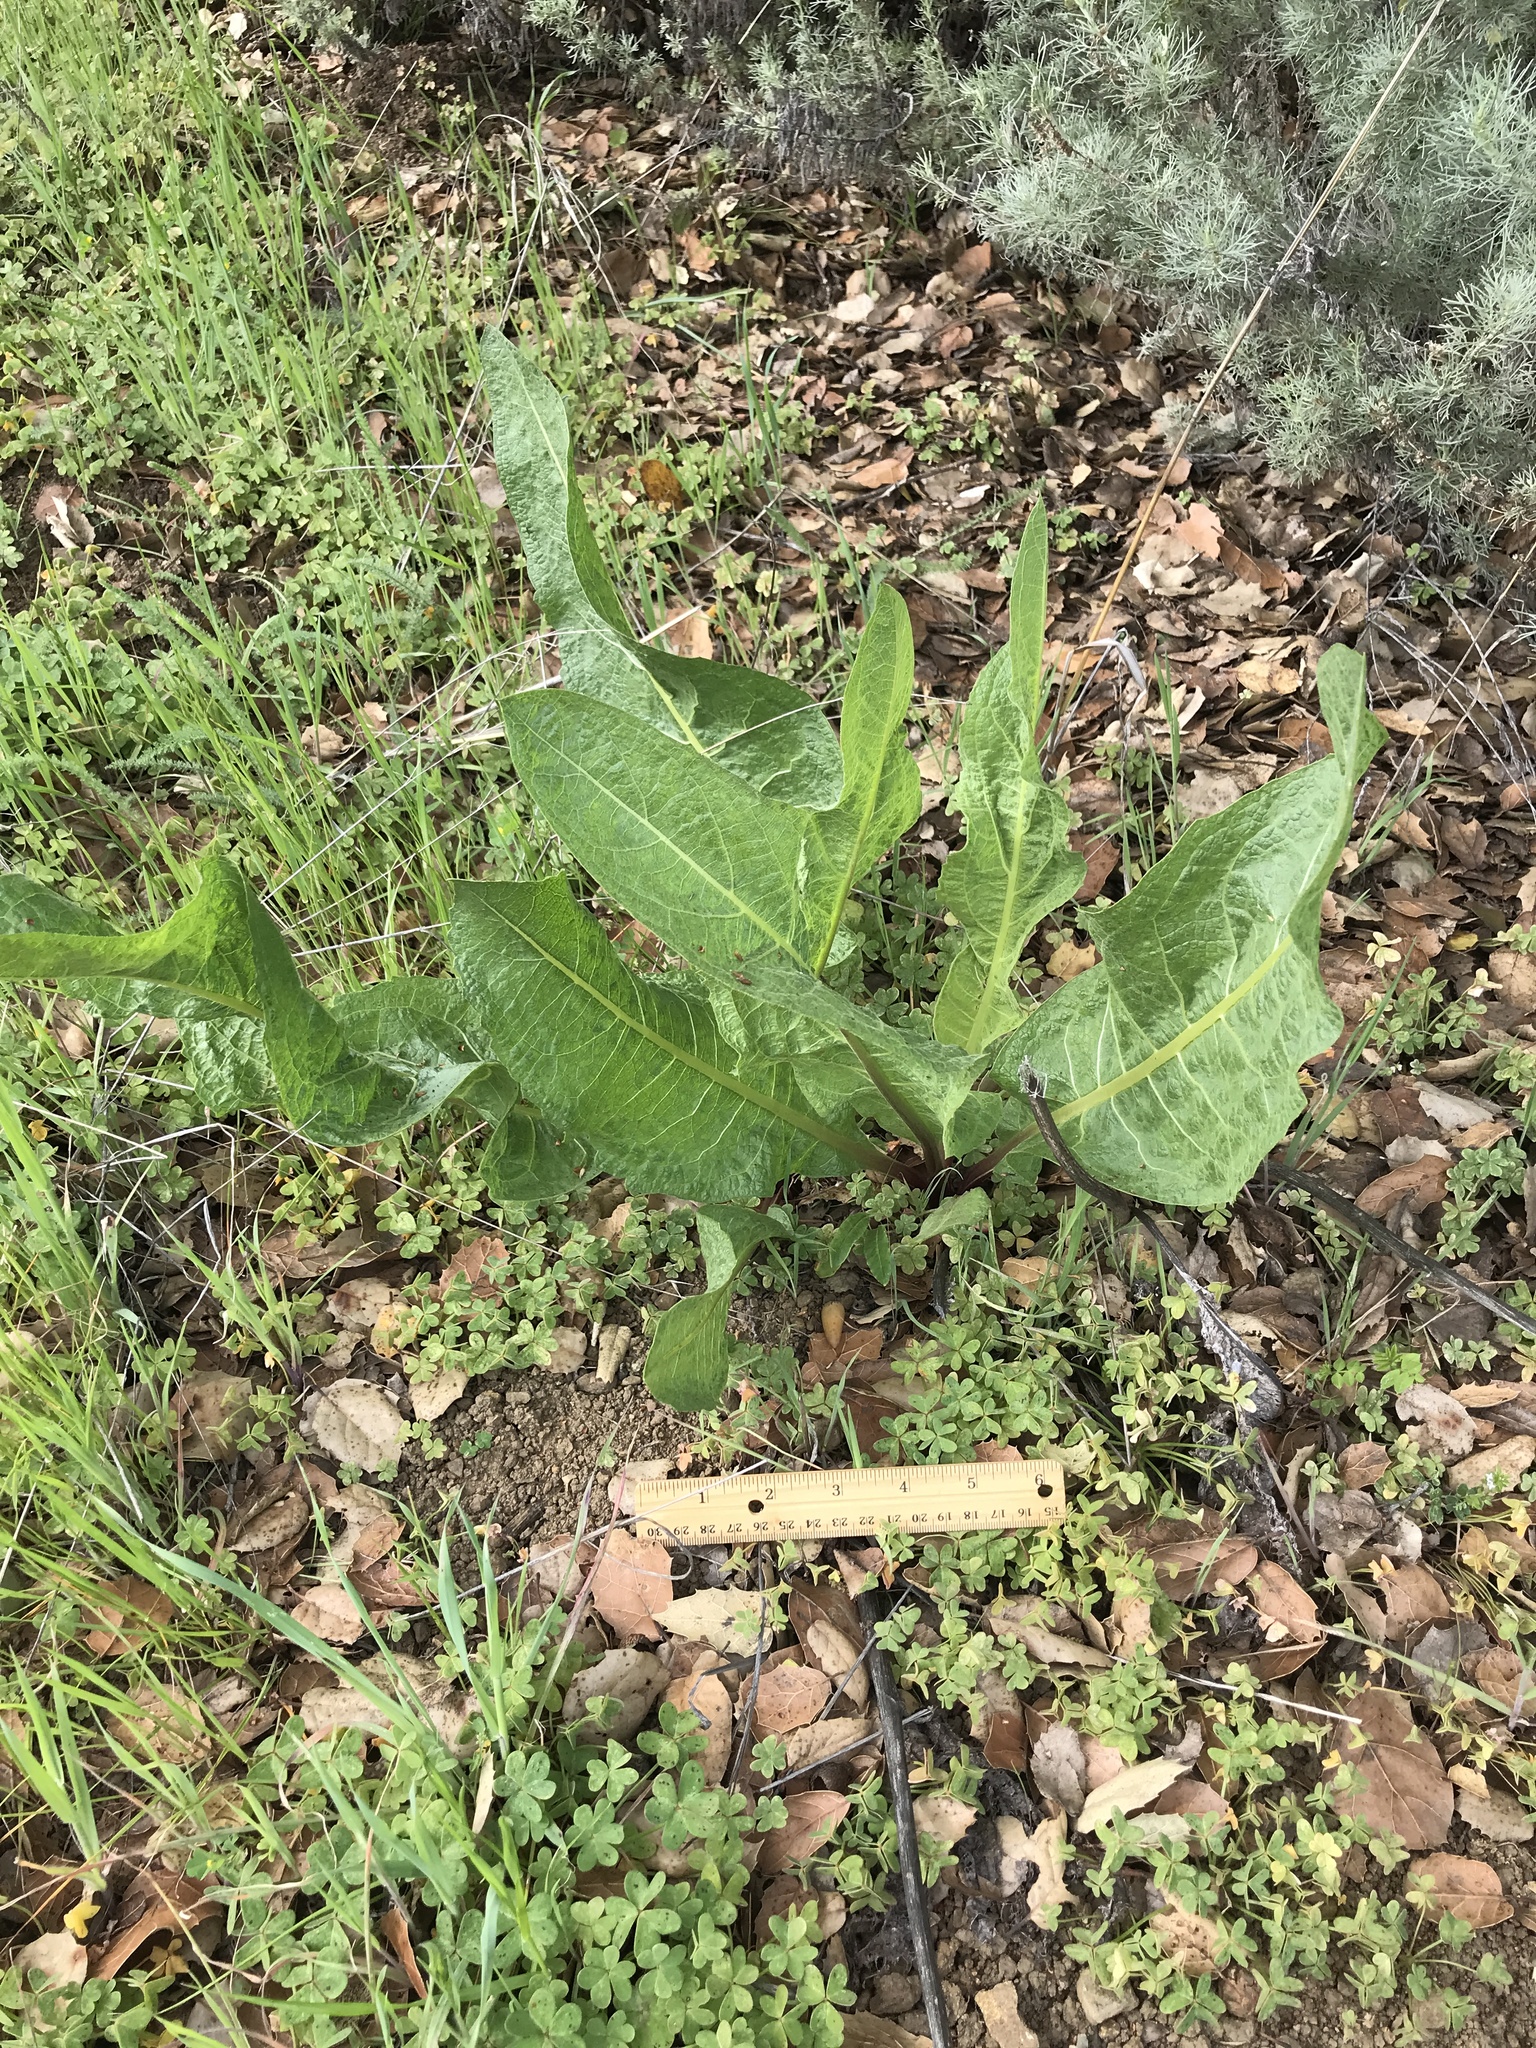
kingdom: Plantae
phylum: Tracheophyta
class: Magnoliopsida
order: Asterales
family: Asteraceae
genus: Wyethia
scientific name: Wyethia glabra
